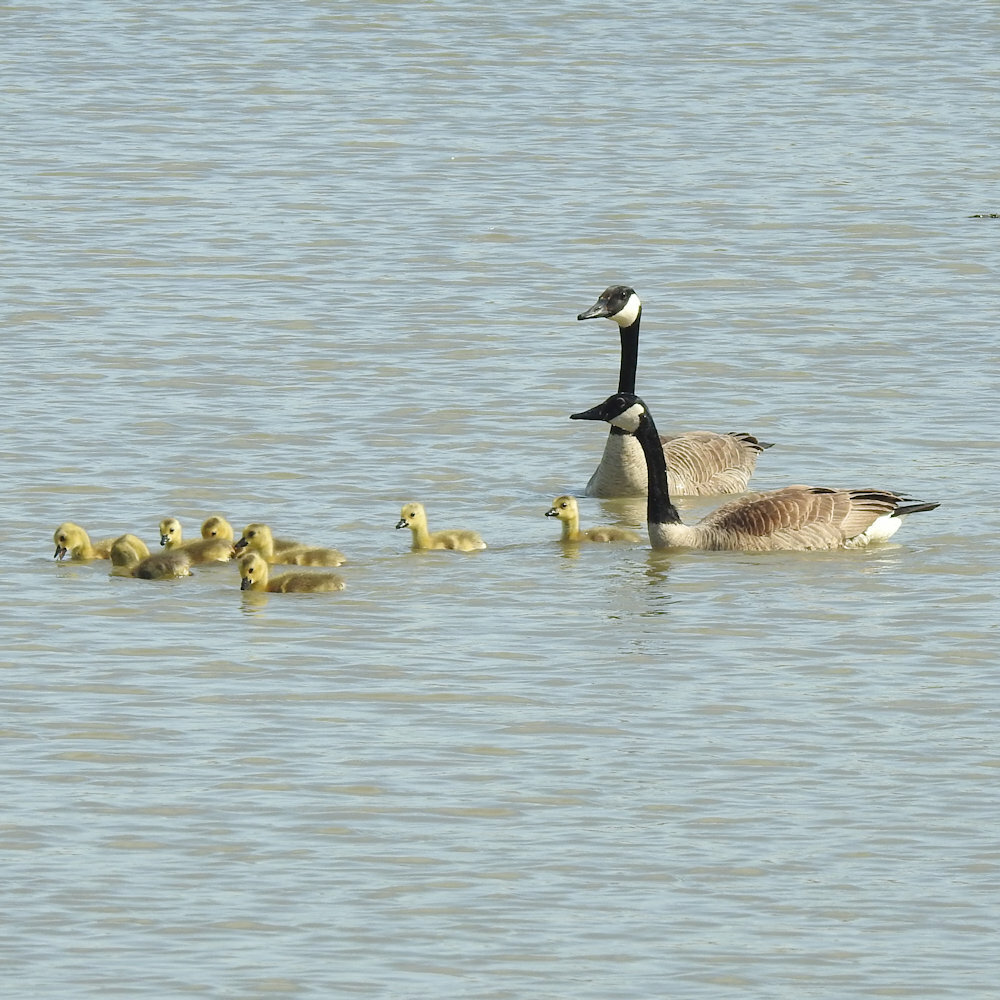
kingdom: Animalia
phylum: Chordata
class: Aves
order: Anseriformes
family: Anatidae
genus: Branta
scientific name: Branta canadensis
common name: Canada goose
